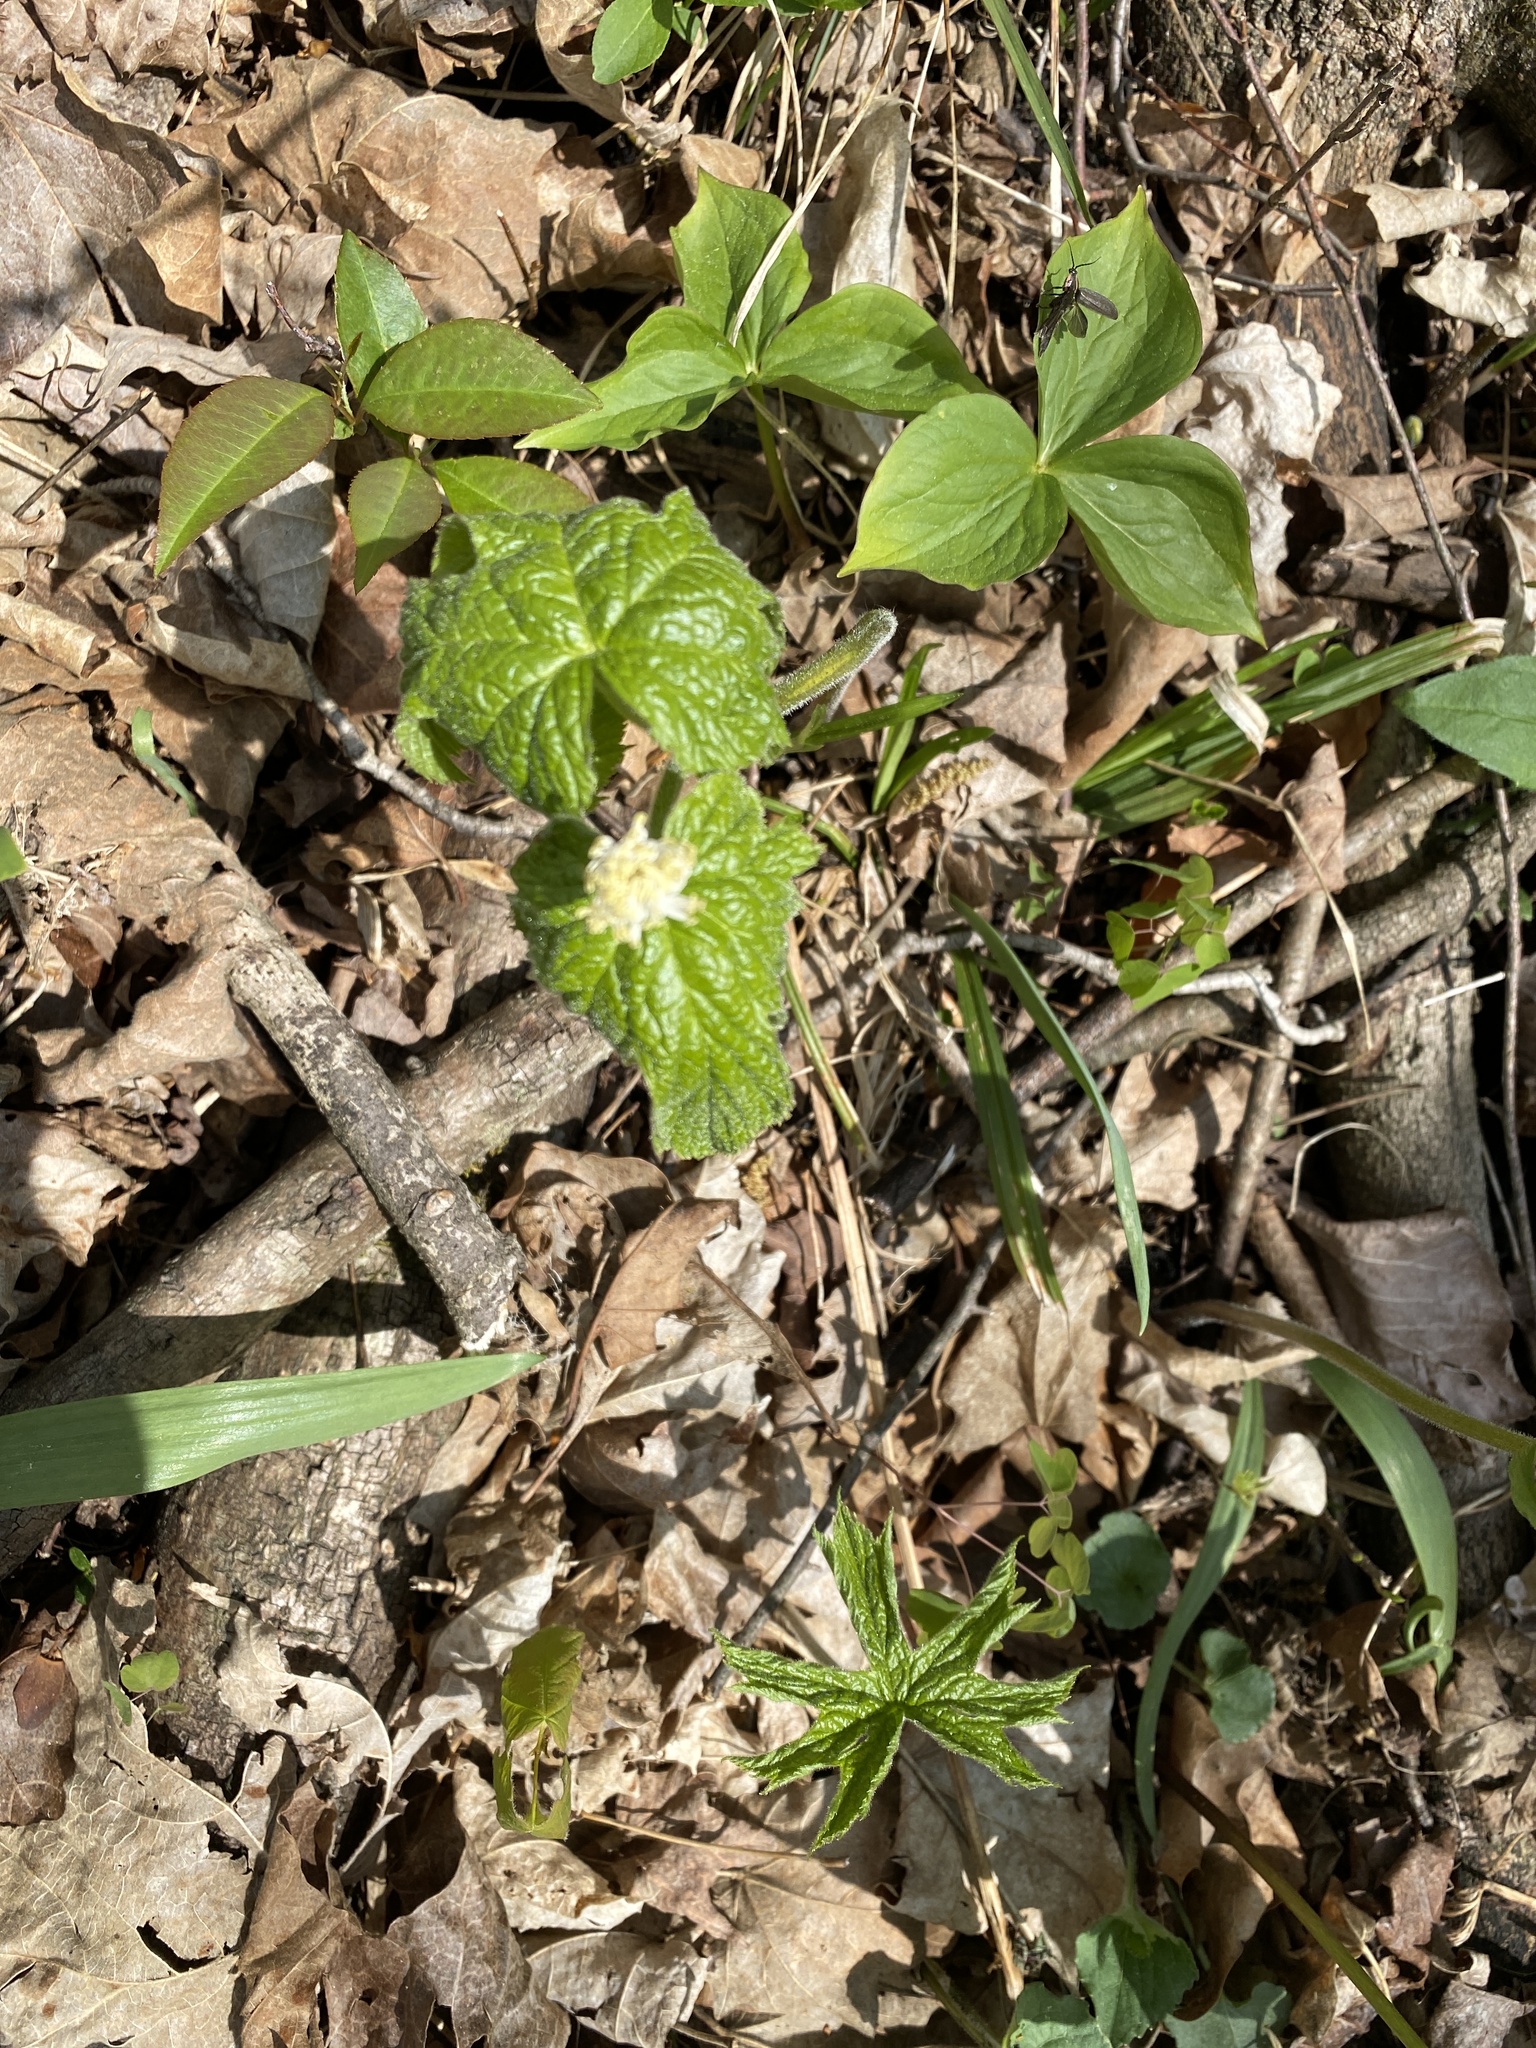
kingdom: Plantae
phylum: Tracheophyta
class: Magnoliopsida
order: Ranunculales
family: Ranunculaceae
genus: Hydrastis
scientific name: Hydrastis canadensis
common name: Goldenseal
